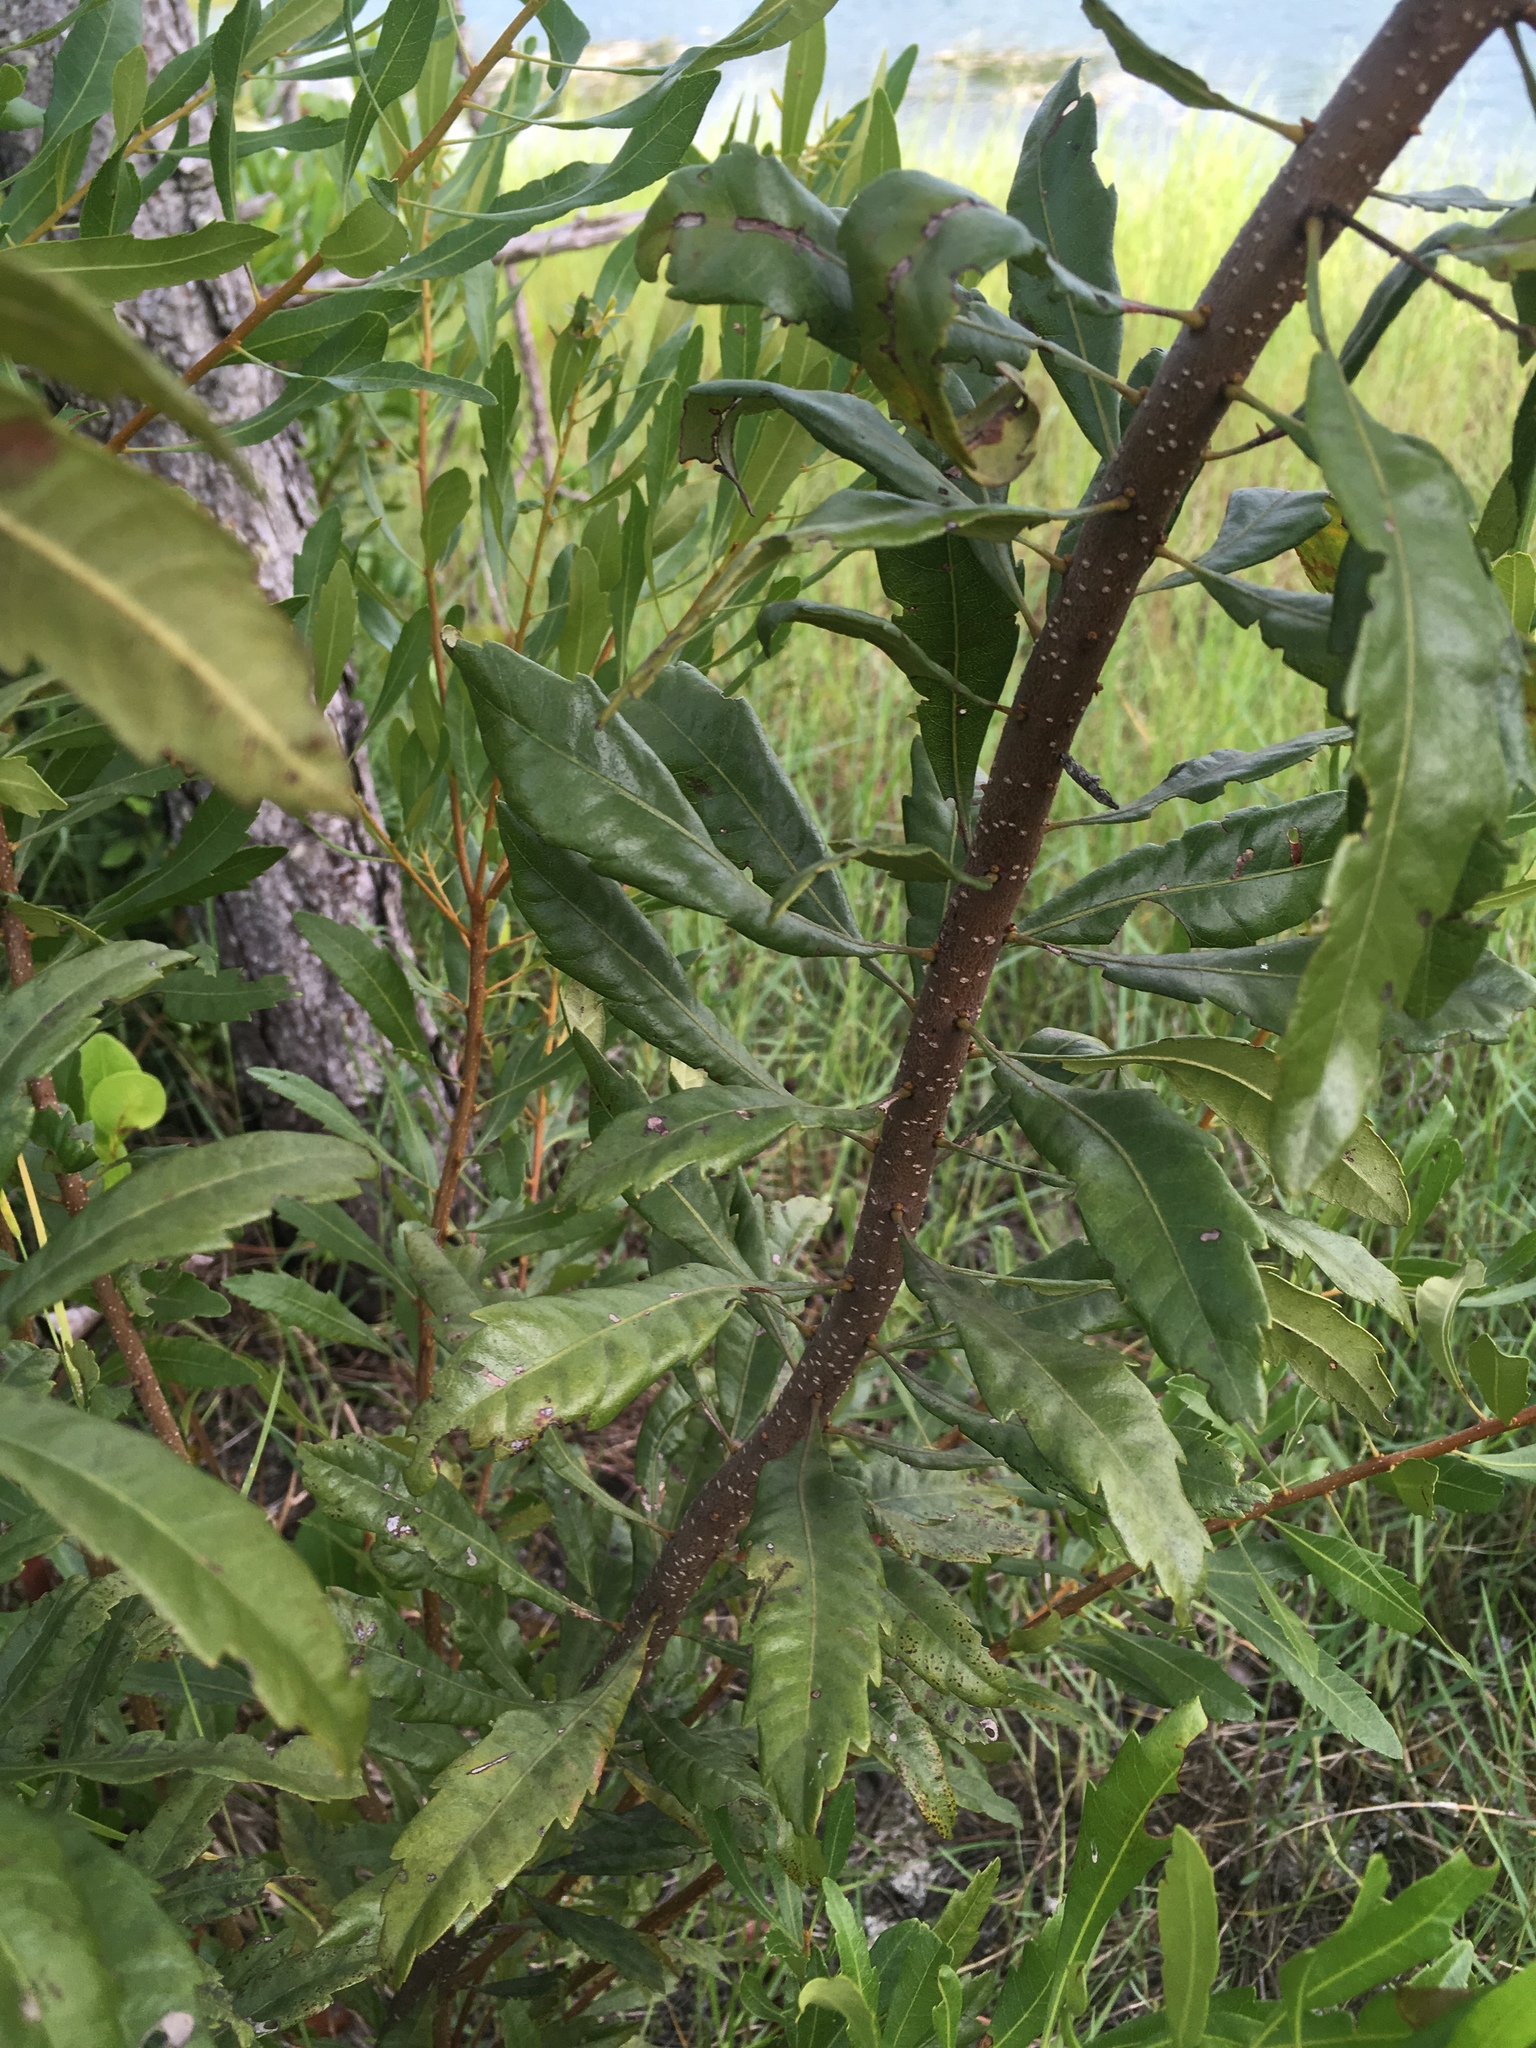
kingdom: Plantae
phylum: Tracheophyta
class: Magnoliopsida
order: Fagales
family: Myricaceae
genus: Morella
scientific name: Morella cerifera
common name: Wax myrtle
